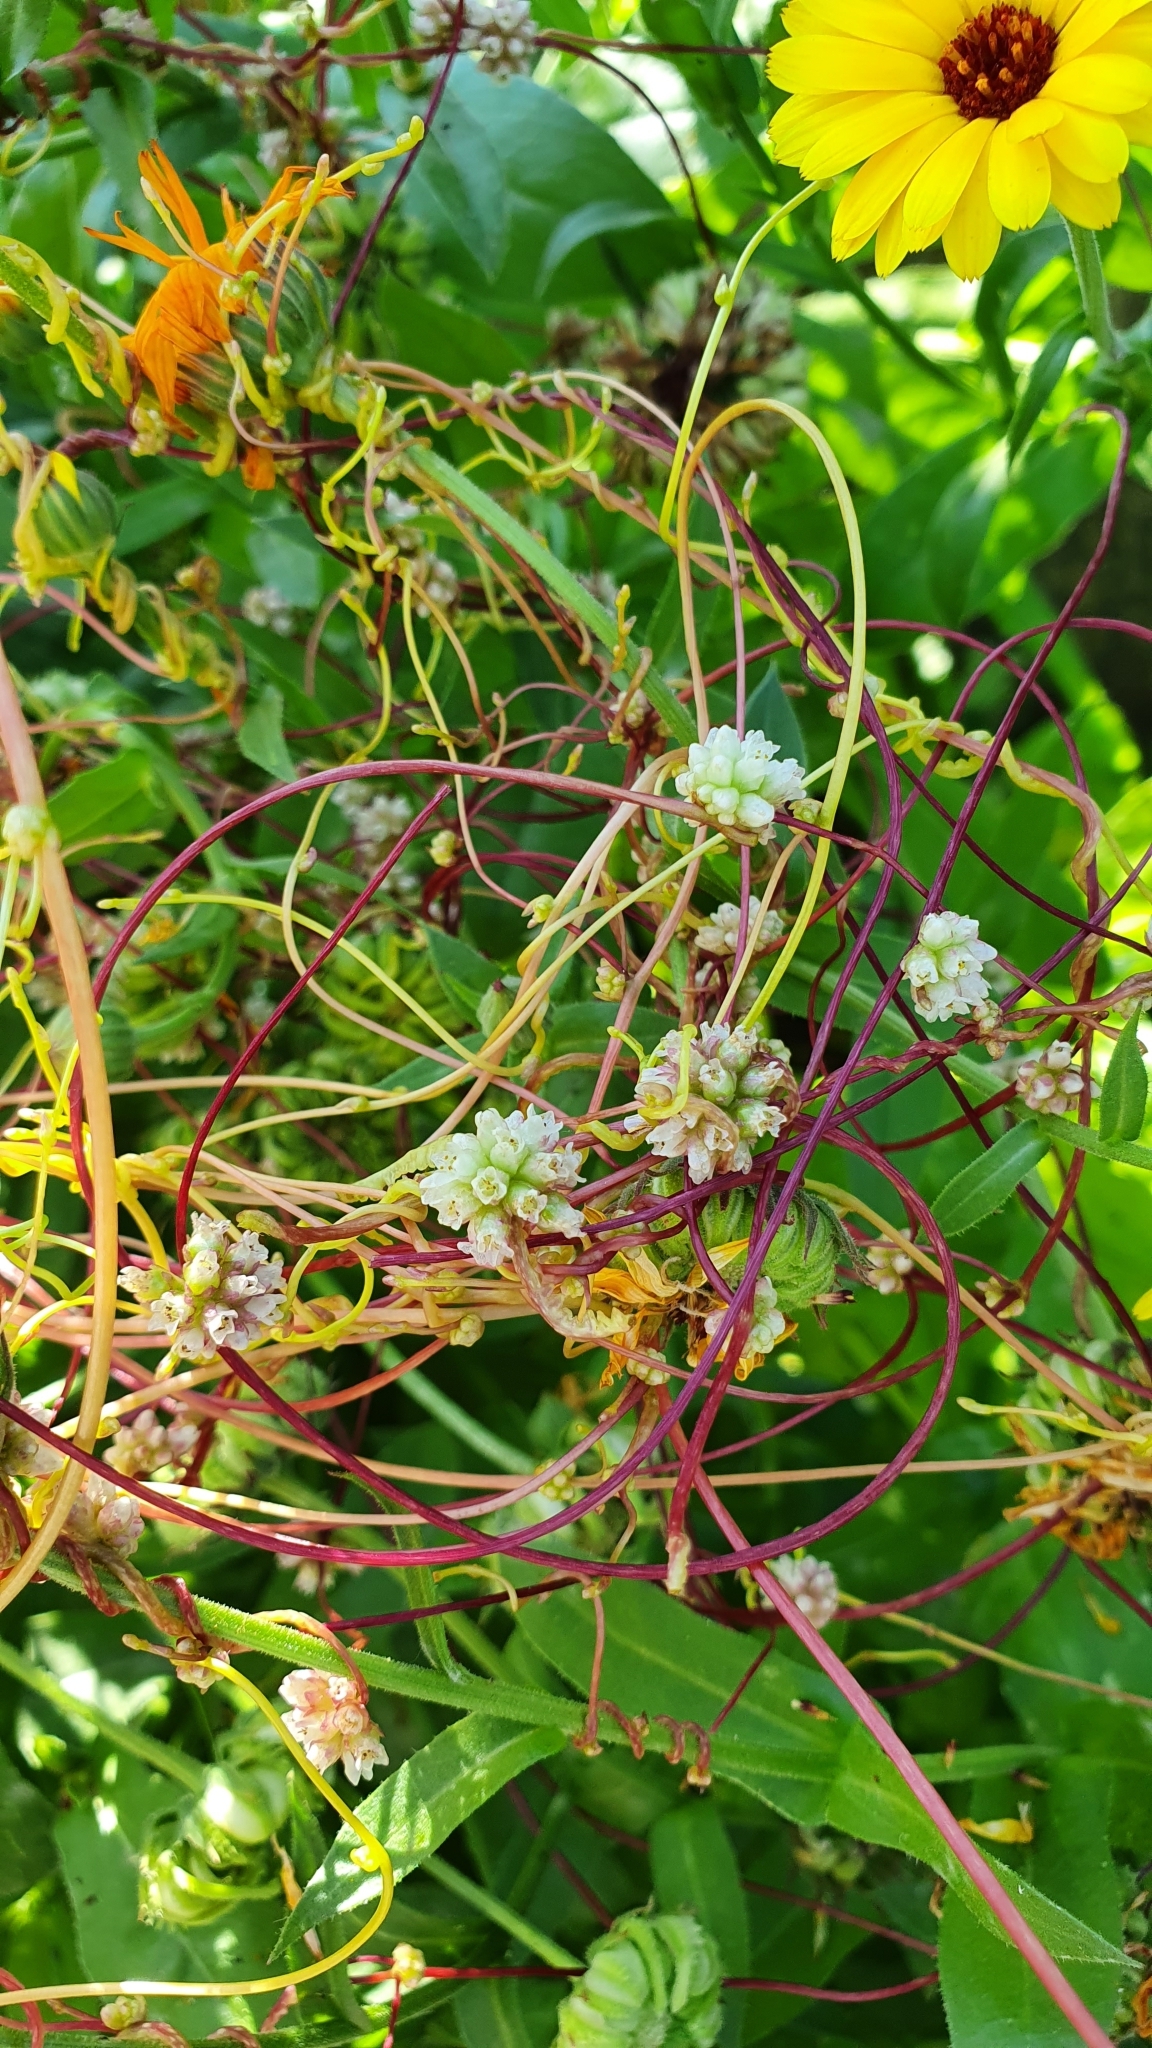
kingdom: Plantae
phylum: Tracheophyta
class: Magnoliopsida
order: Solanales
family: Convolvulaceae
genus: Cuscuta
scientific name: Cuscuta europaea
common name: Greater dodder
